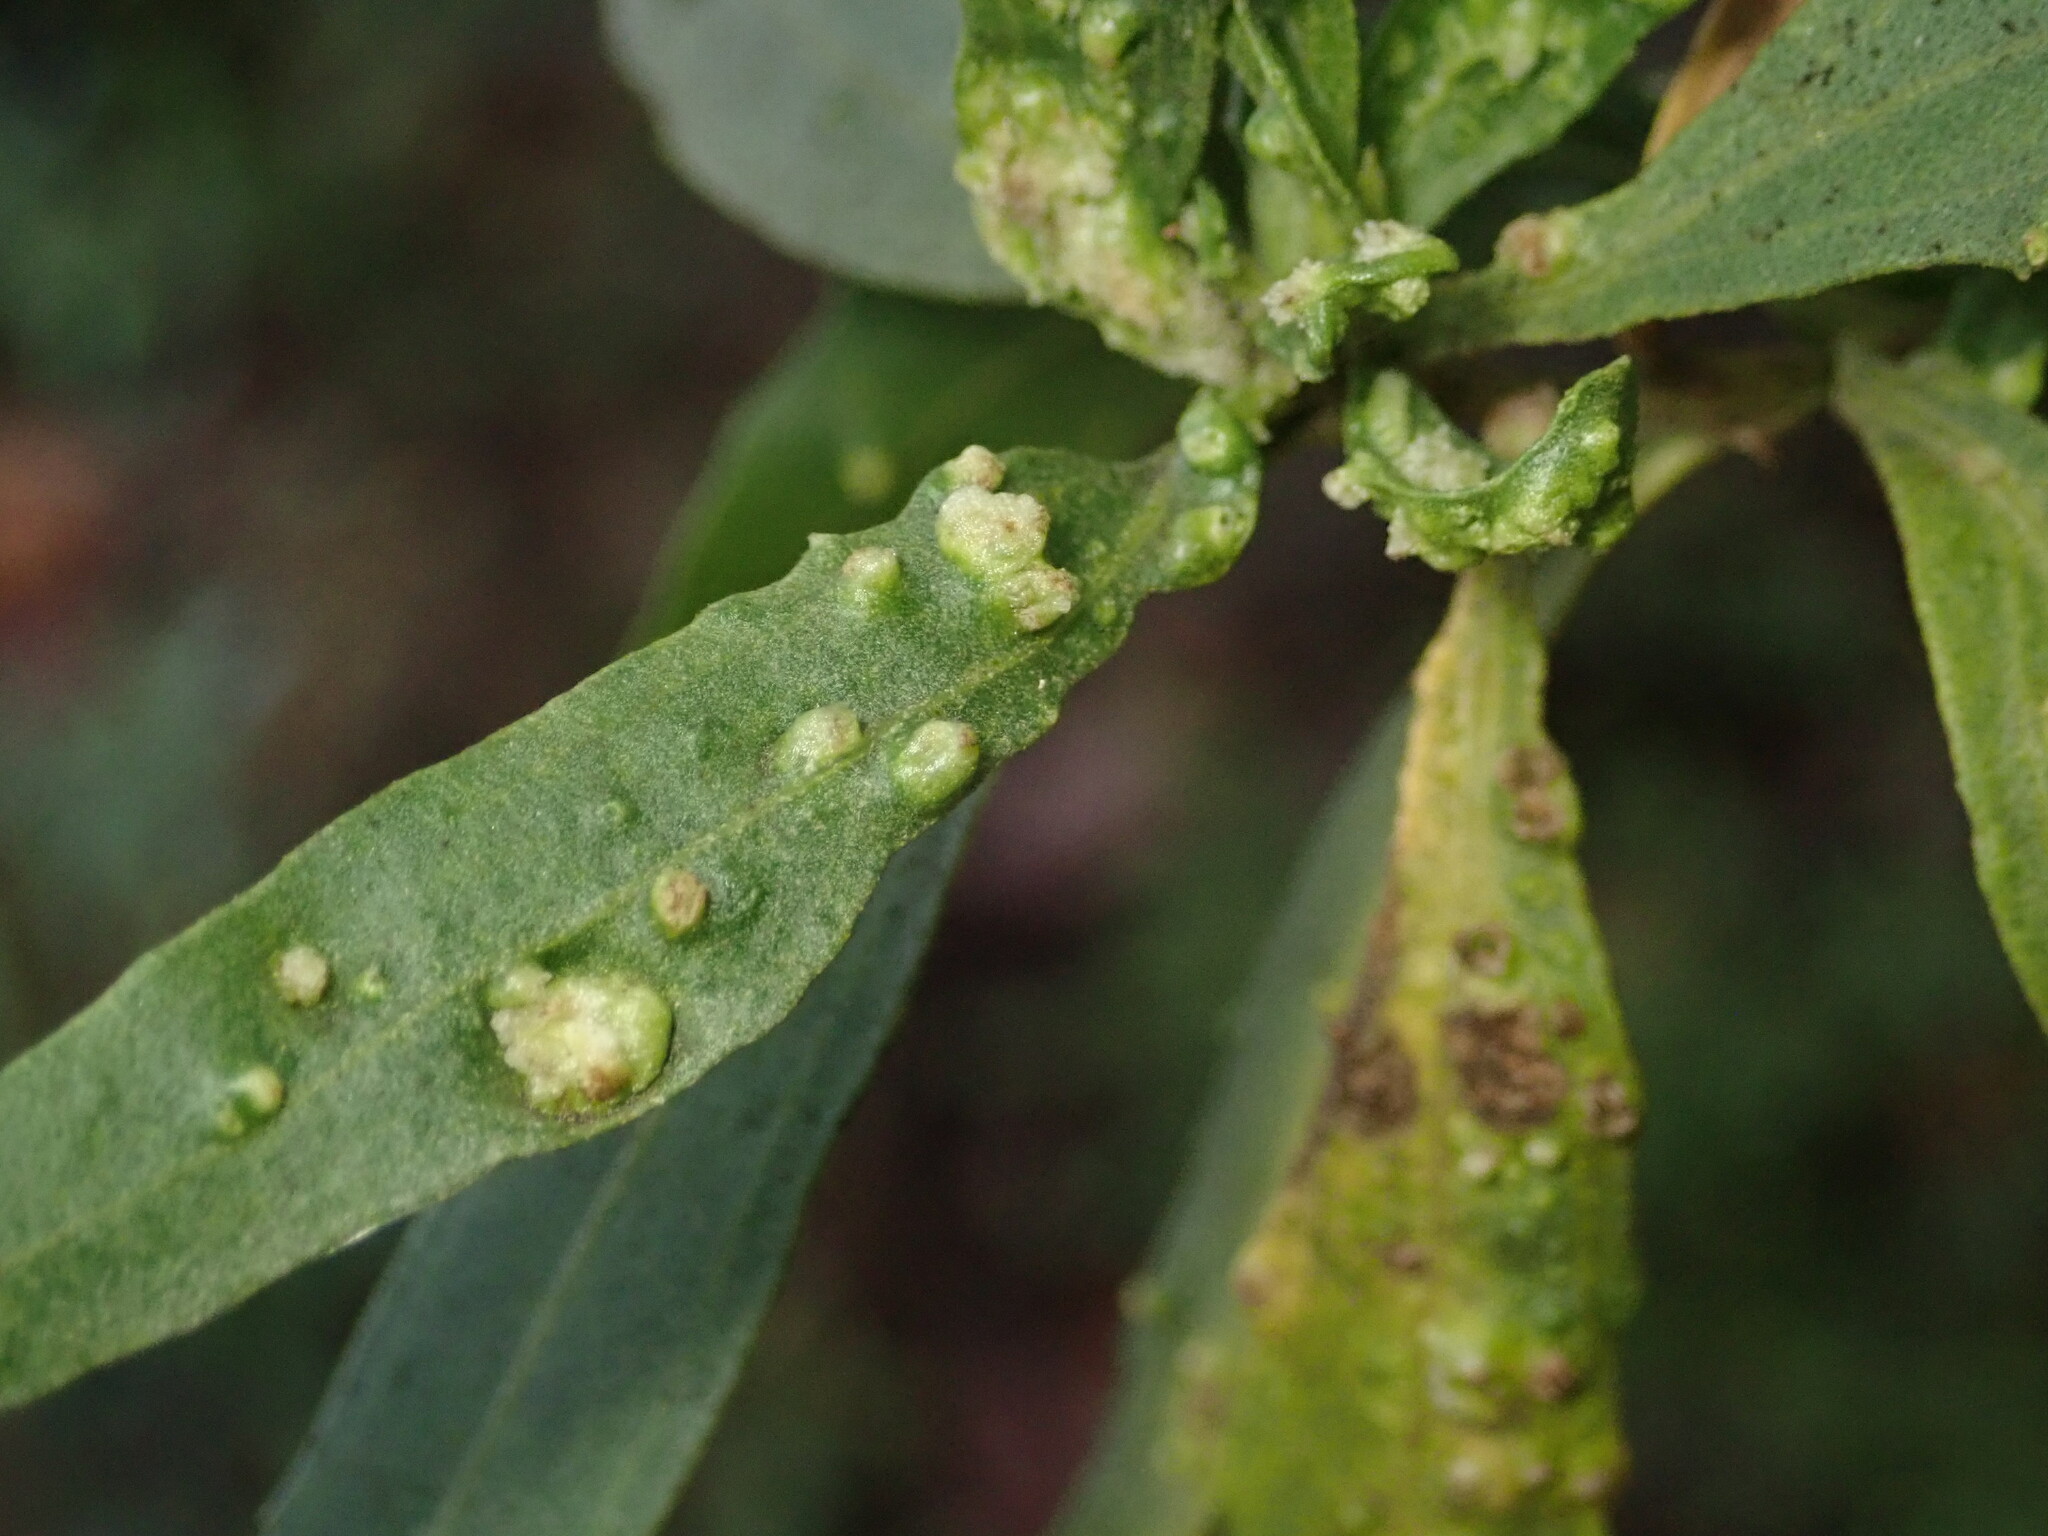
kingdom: Animalia
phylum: Arthropoda
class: Arachnida
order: Trombidiformes
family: Eriophyidae
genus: Aceria
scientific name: Aceria
